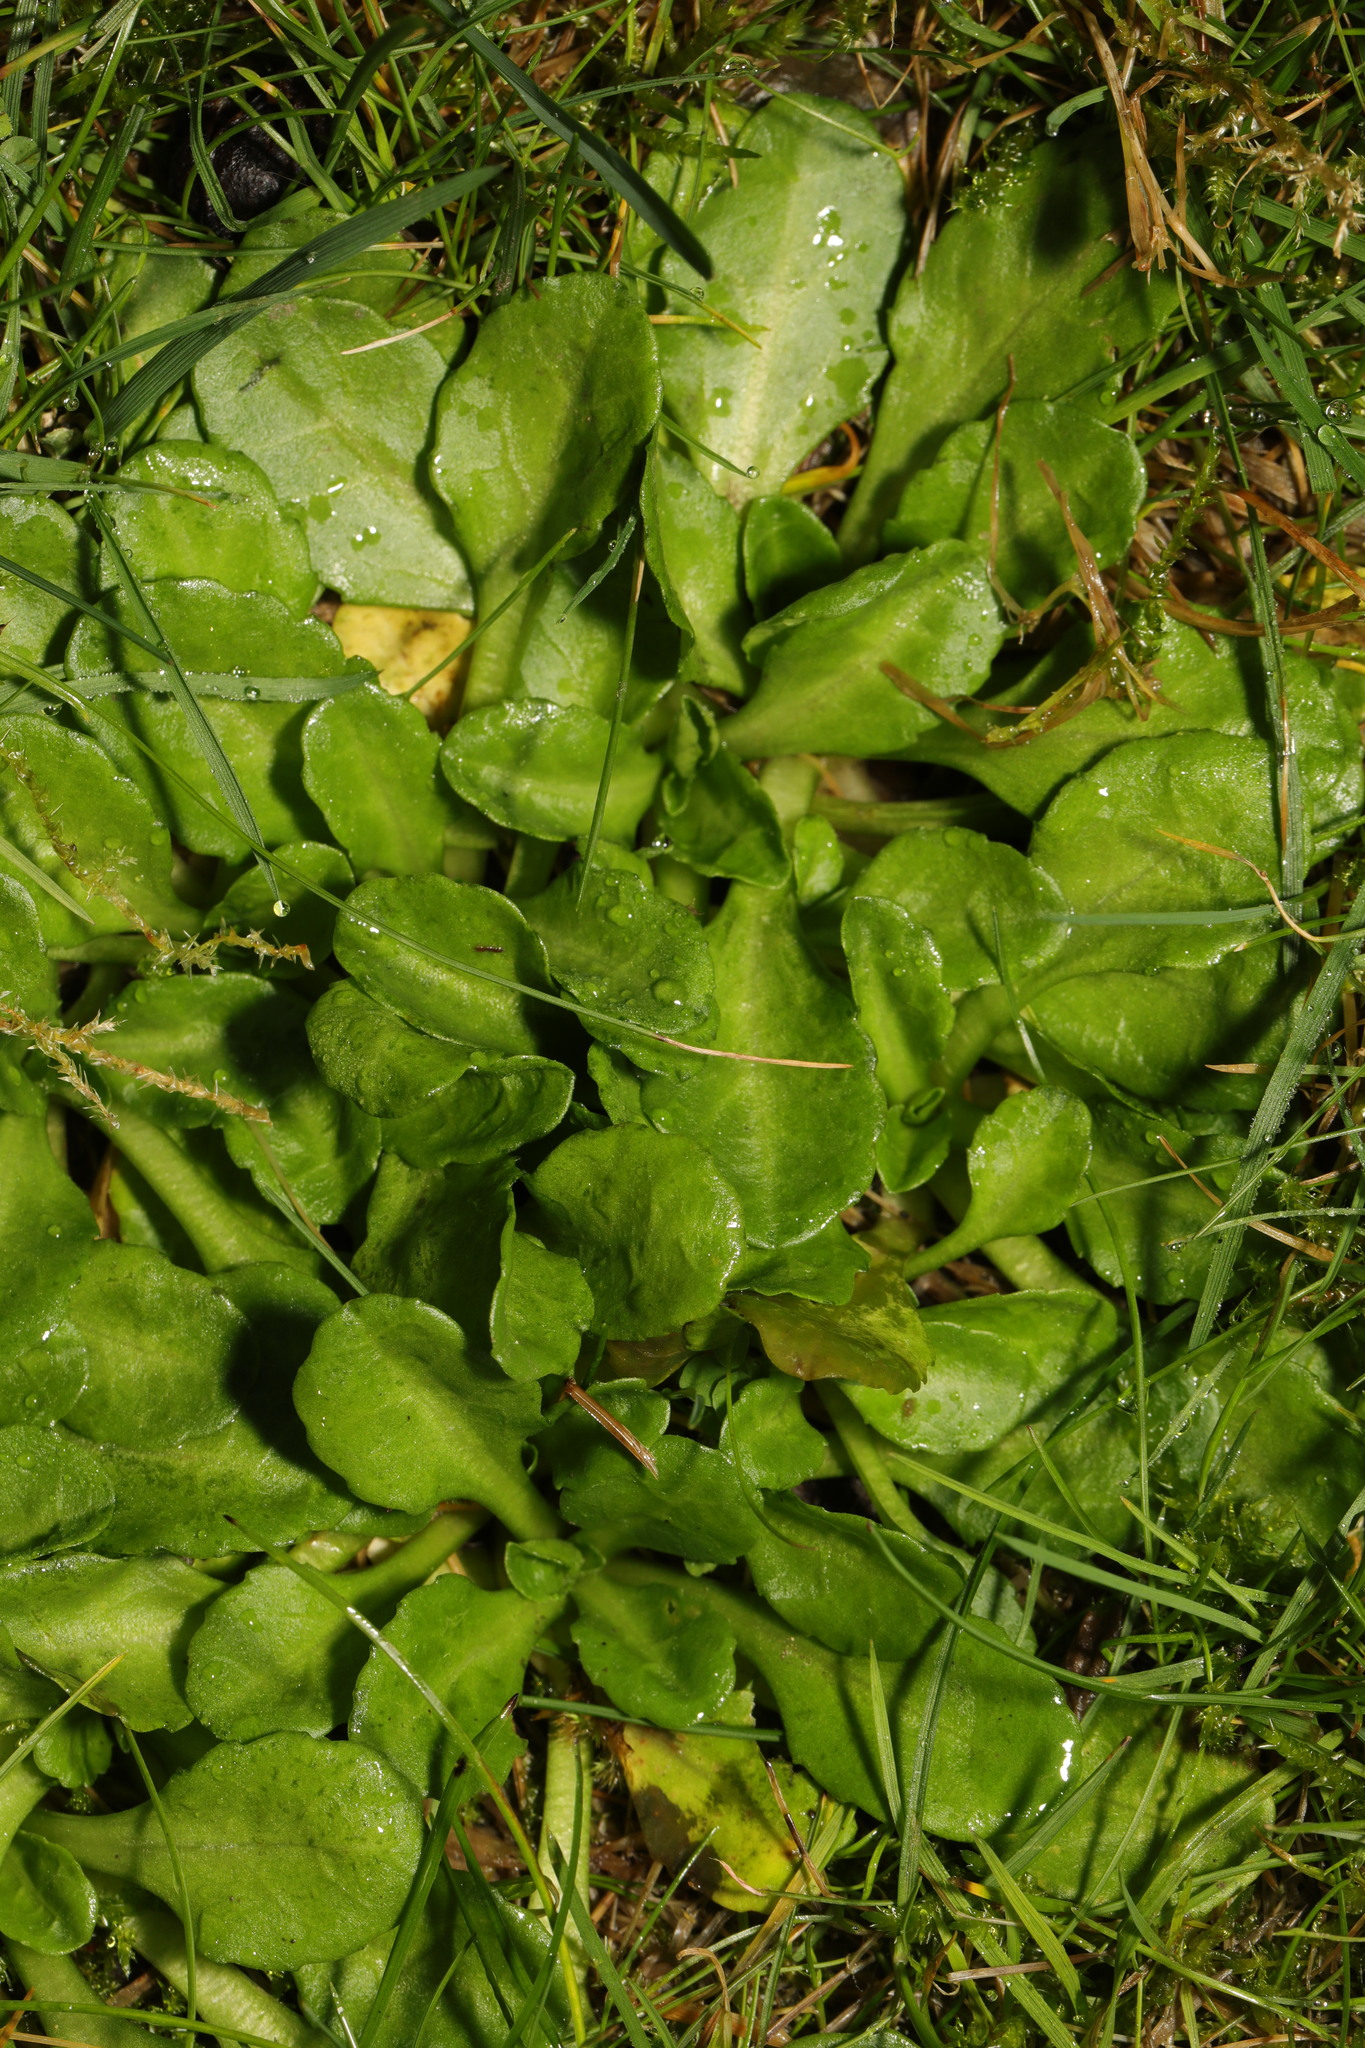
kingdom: Plantae
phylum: Tracheophyta
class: Magnoliopsida
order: Asterales
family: Asteraceae
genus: Bellis
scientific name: Bellis perennis
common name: Lawndaisy
